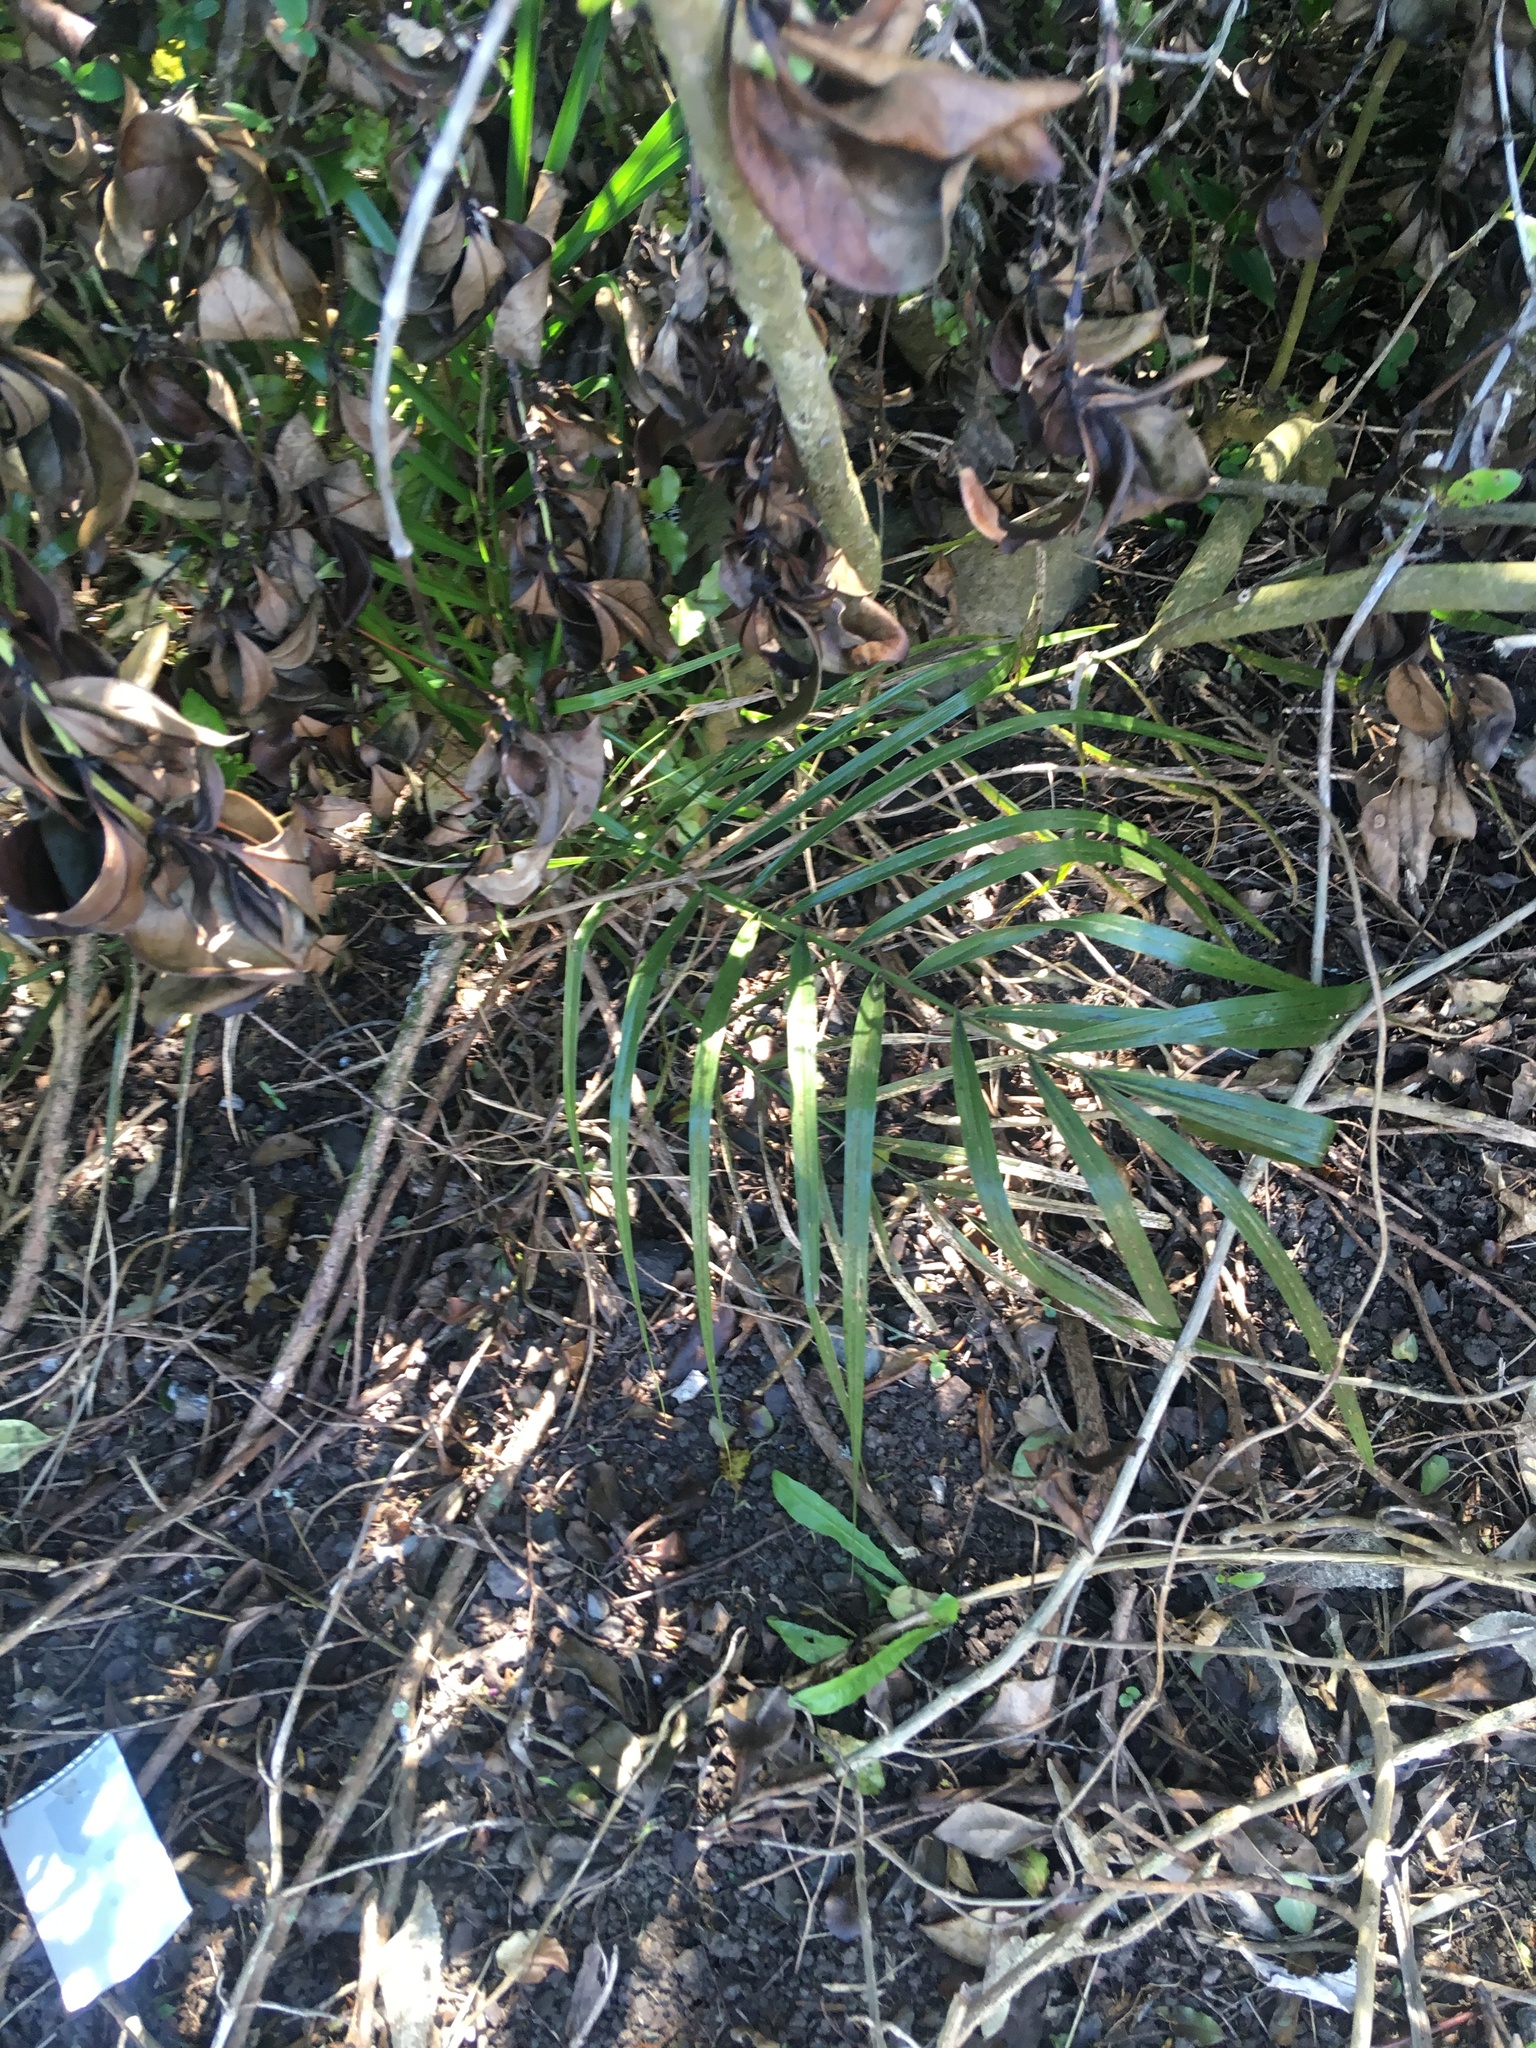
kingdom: Plantae
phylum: Tracheophyta
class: Liliopsida
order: Arecales
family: Arecaceae
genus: Phoenix
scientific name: Phoenix canariensis
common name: Canary island date palm
